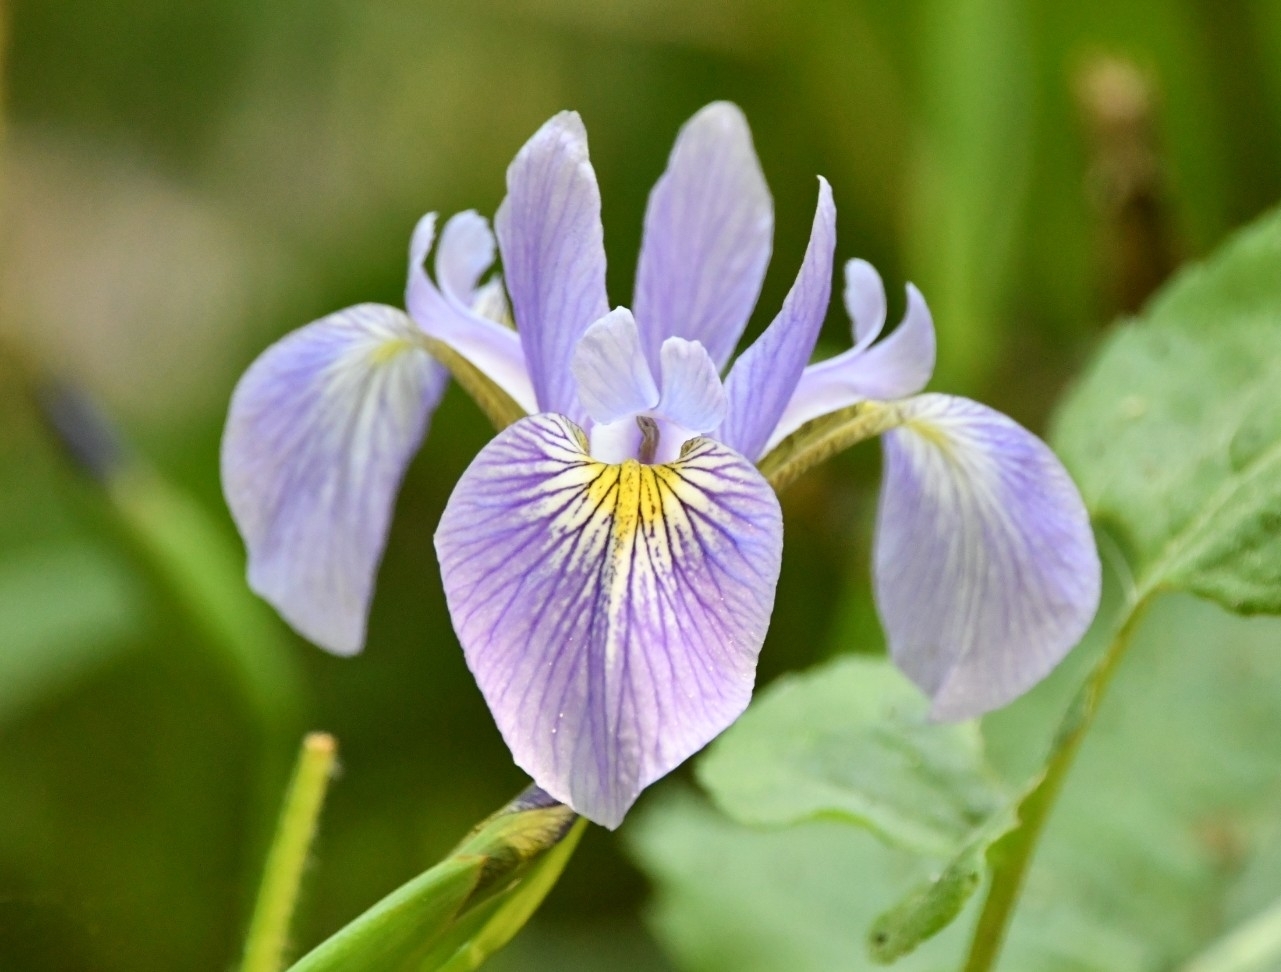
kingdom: Plantae
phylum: Tracheophyta
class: Liliopsida
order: Asparagales
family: Iridaceae
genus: Iris
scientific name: Iris versicolor
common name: Purple iris
